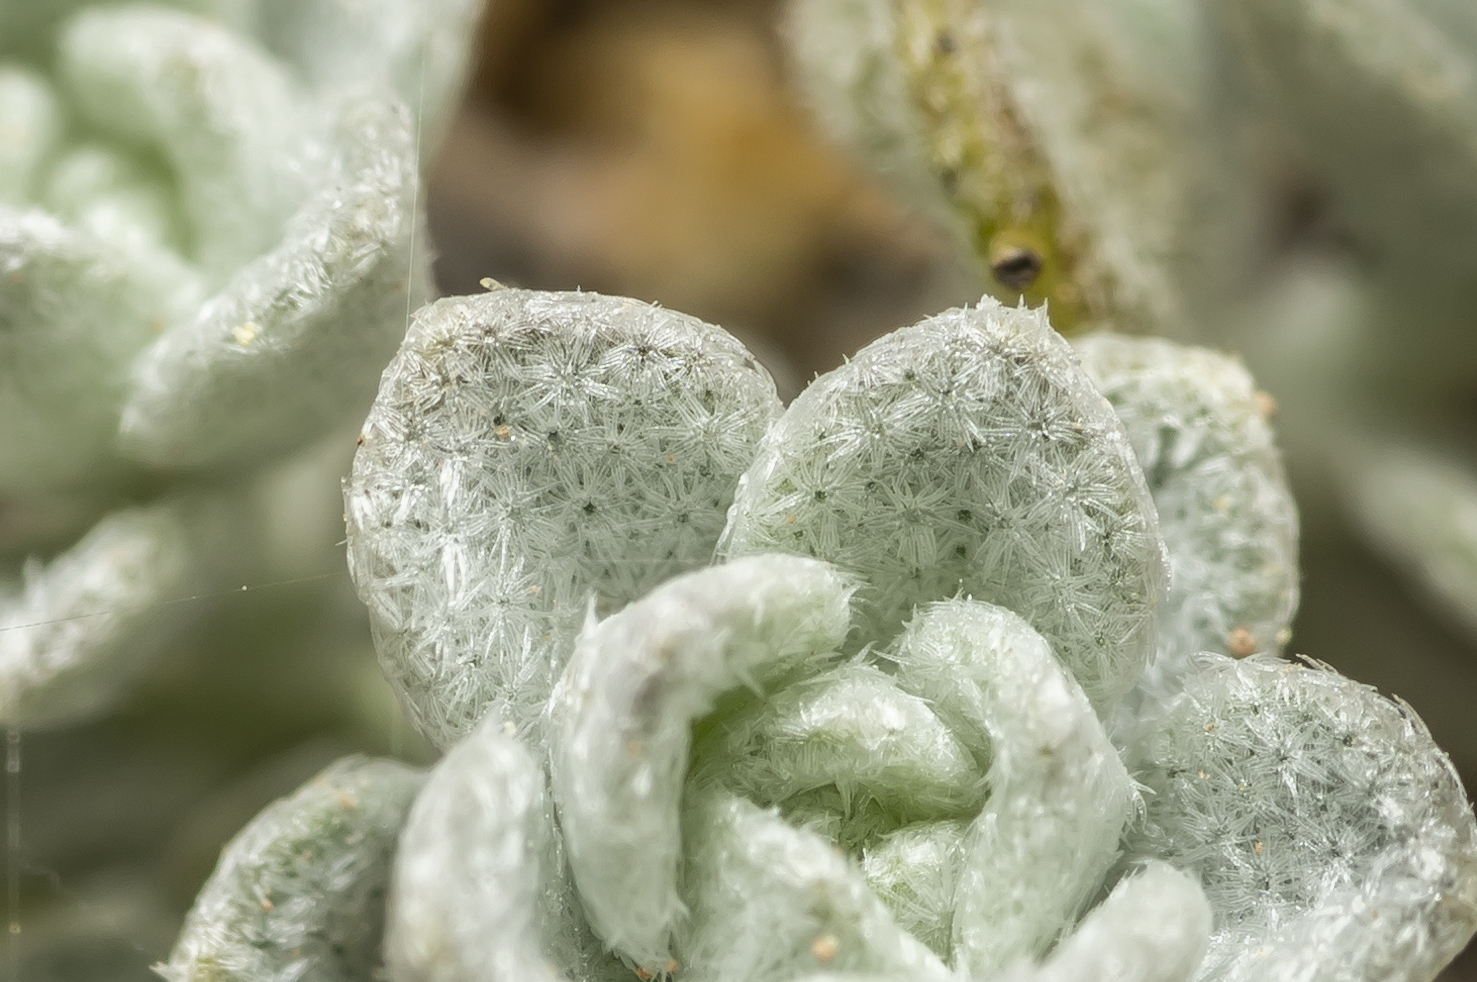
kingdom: Plantae
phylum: Tracheophyta
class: Magnoliopsida
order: Brassicales
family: Brassicaceae
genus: Odontarrhena
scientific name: Odontarrhena sibirica
